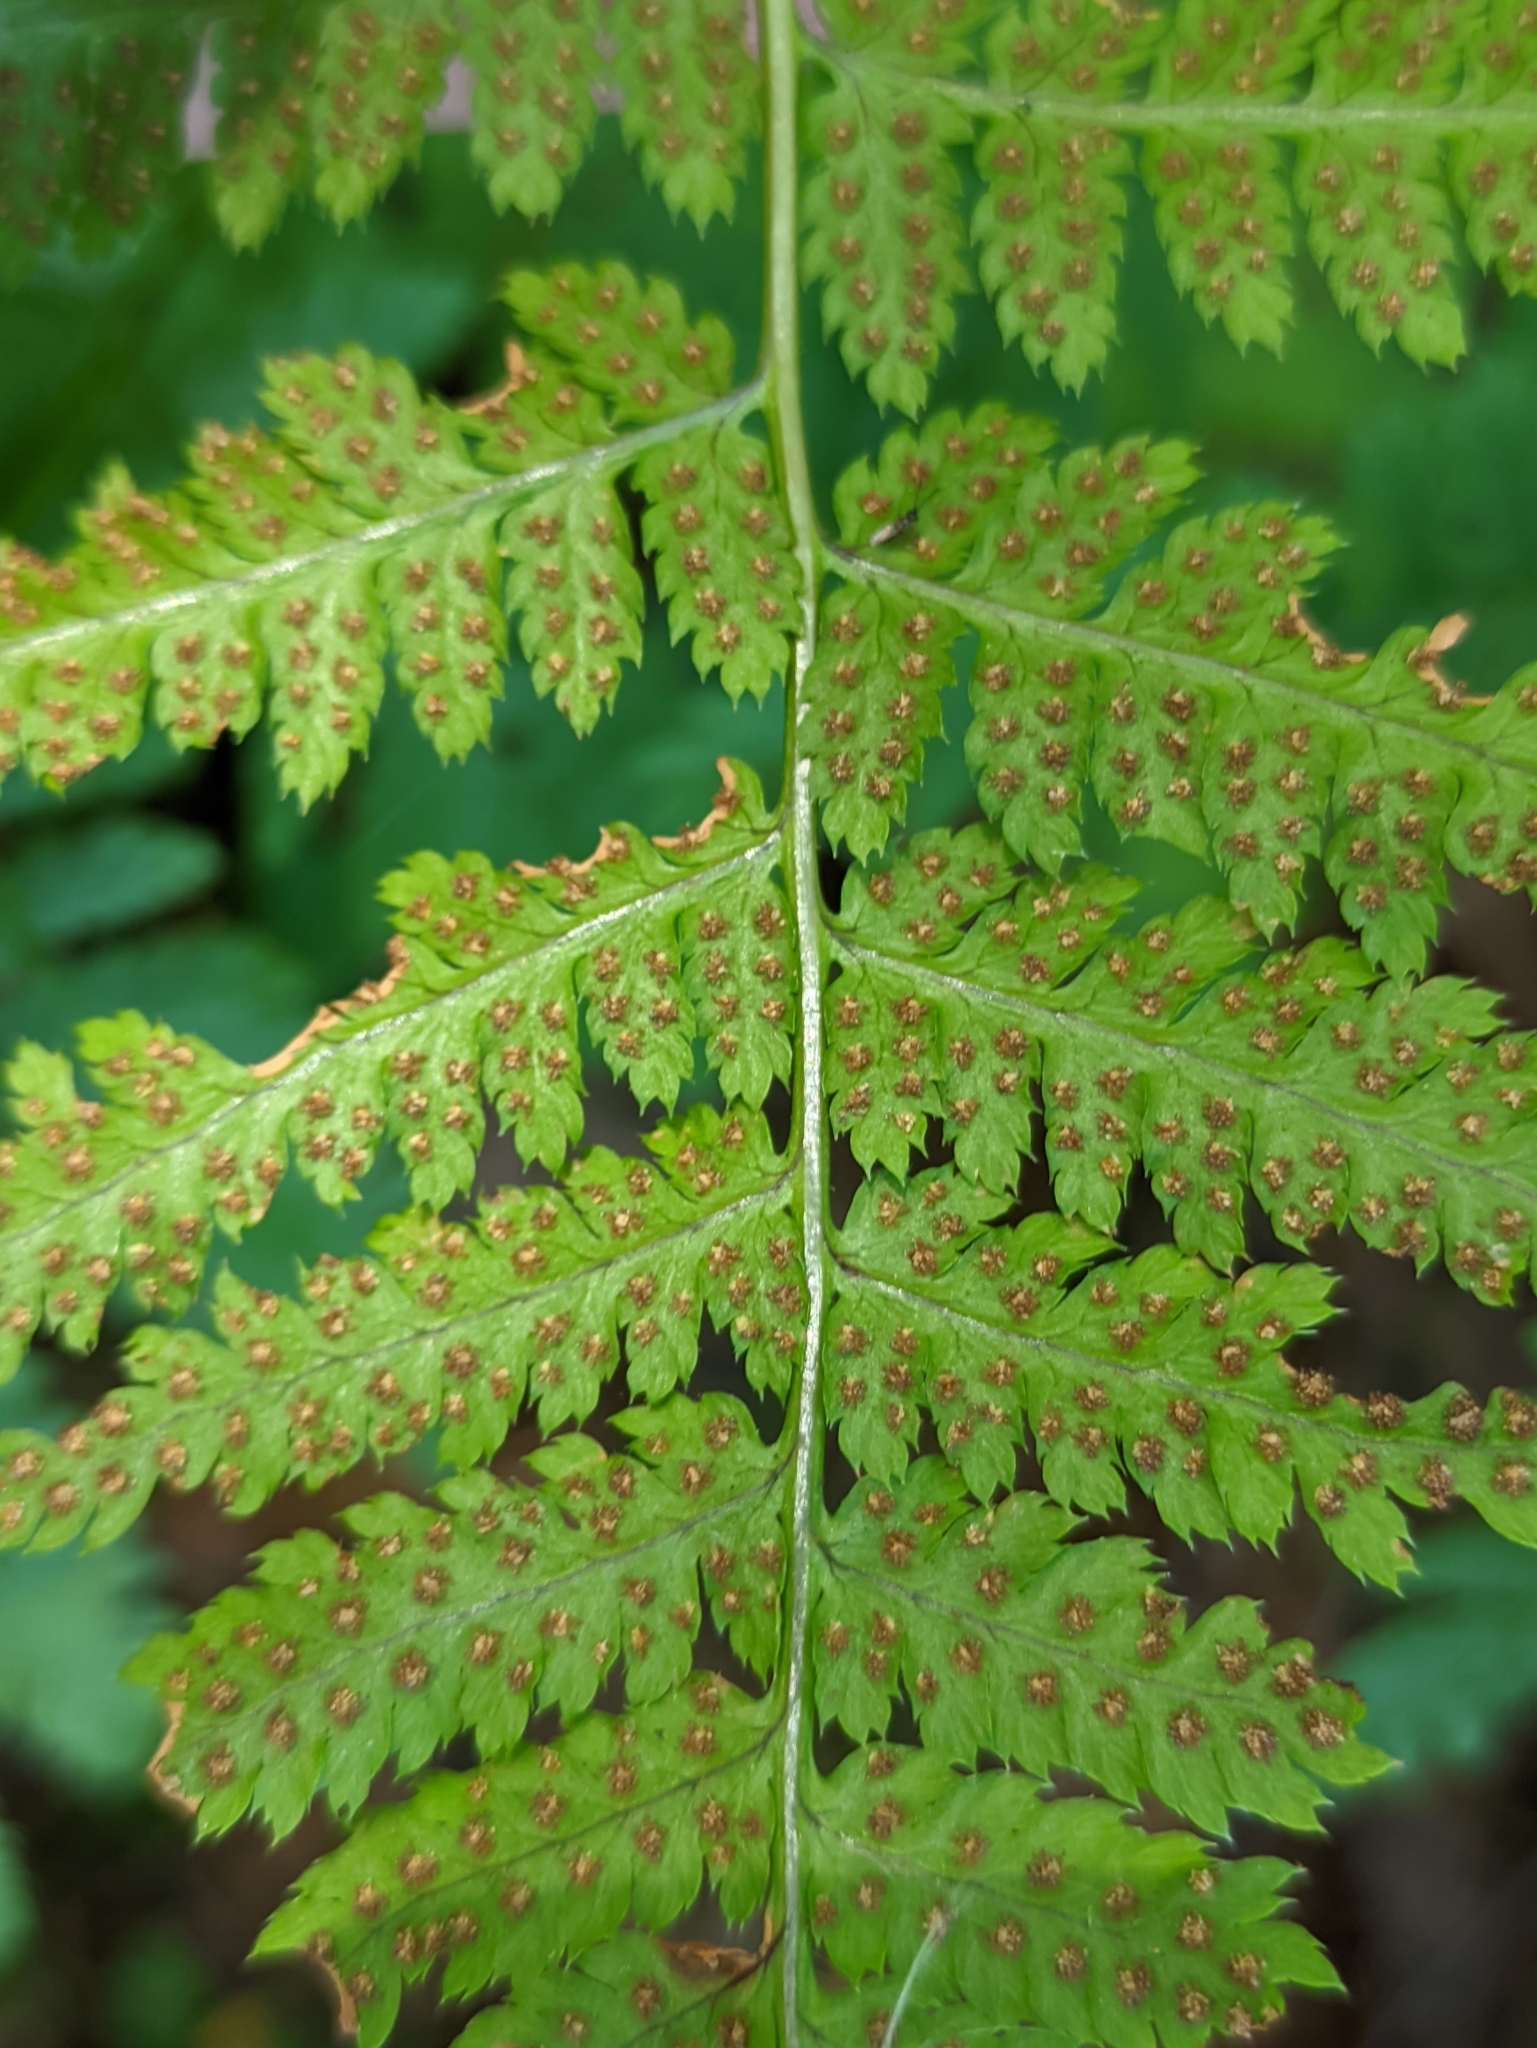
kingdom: Plantae
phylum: Tracheophyta
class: Polypodiopsida
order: Polypodiales
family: Dryopteridaceae
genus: Dryopteris
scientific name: Dryopteris carthusiana
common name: Narrow buckler-fern
